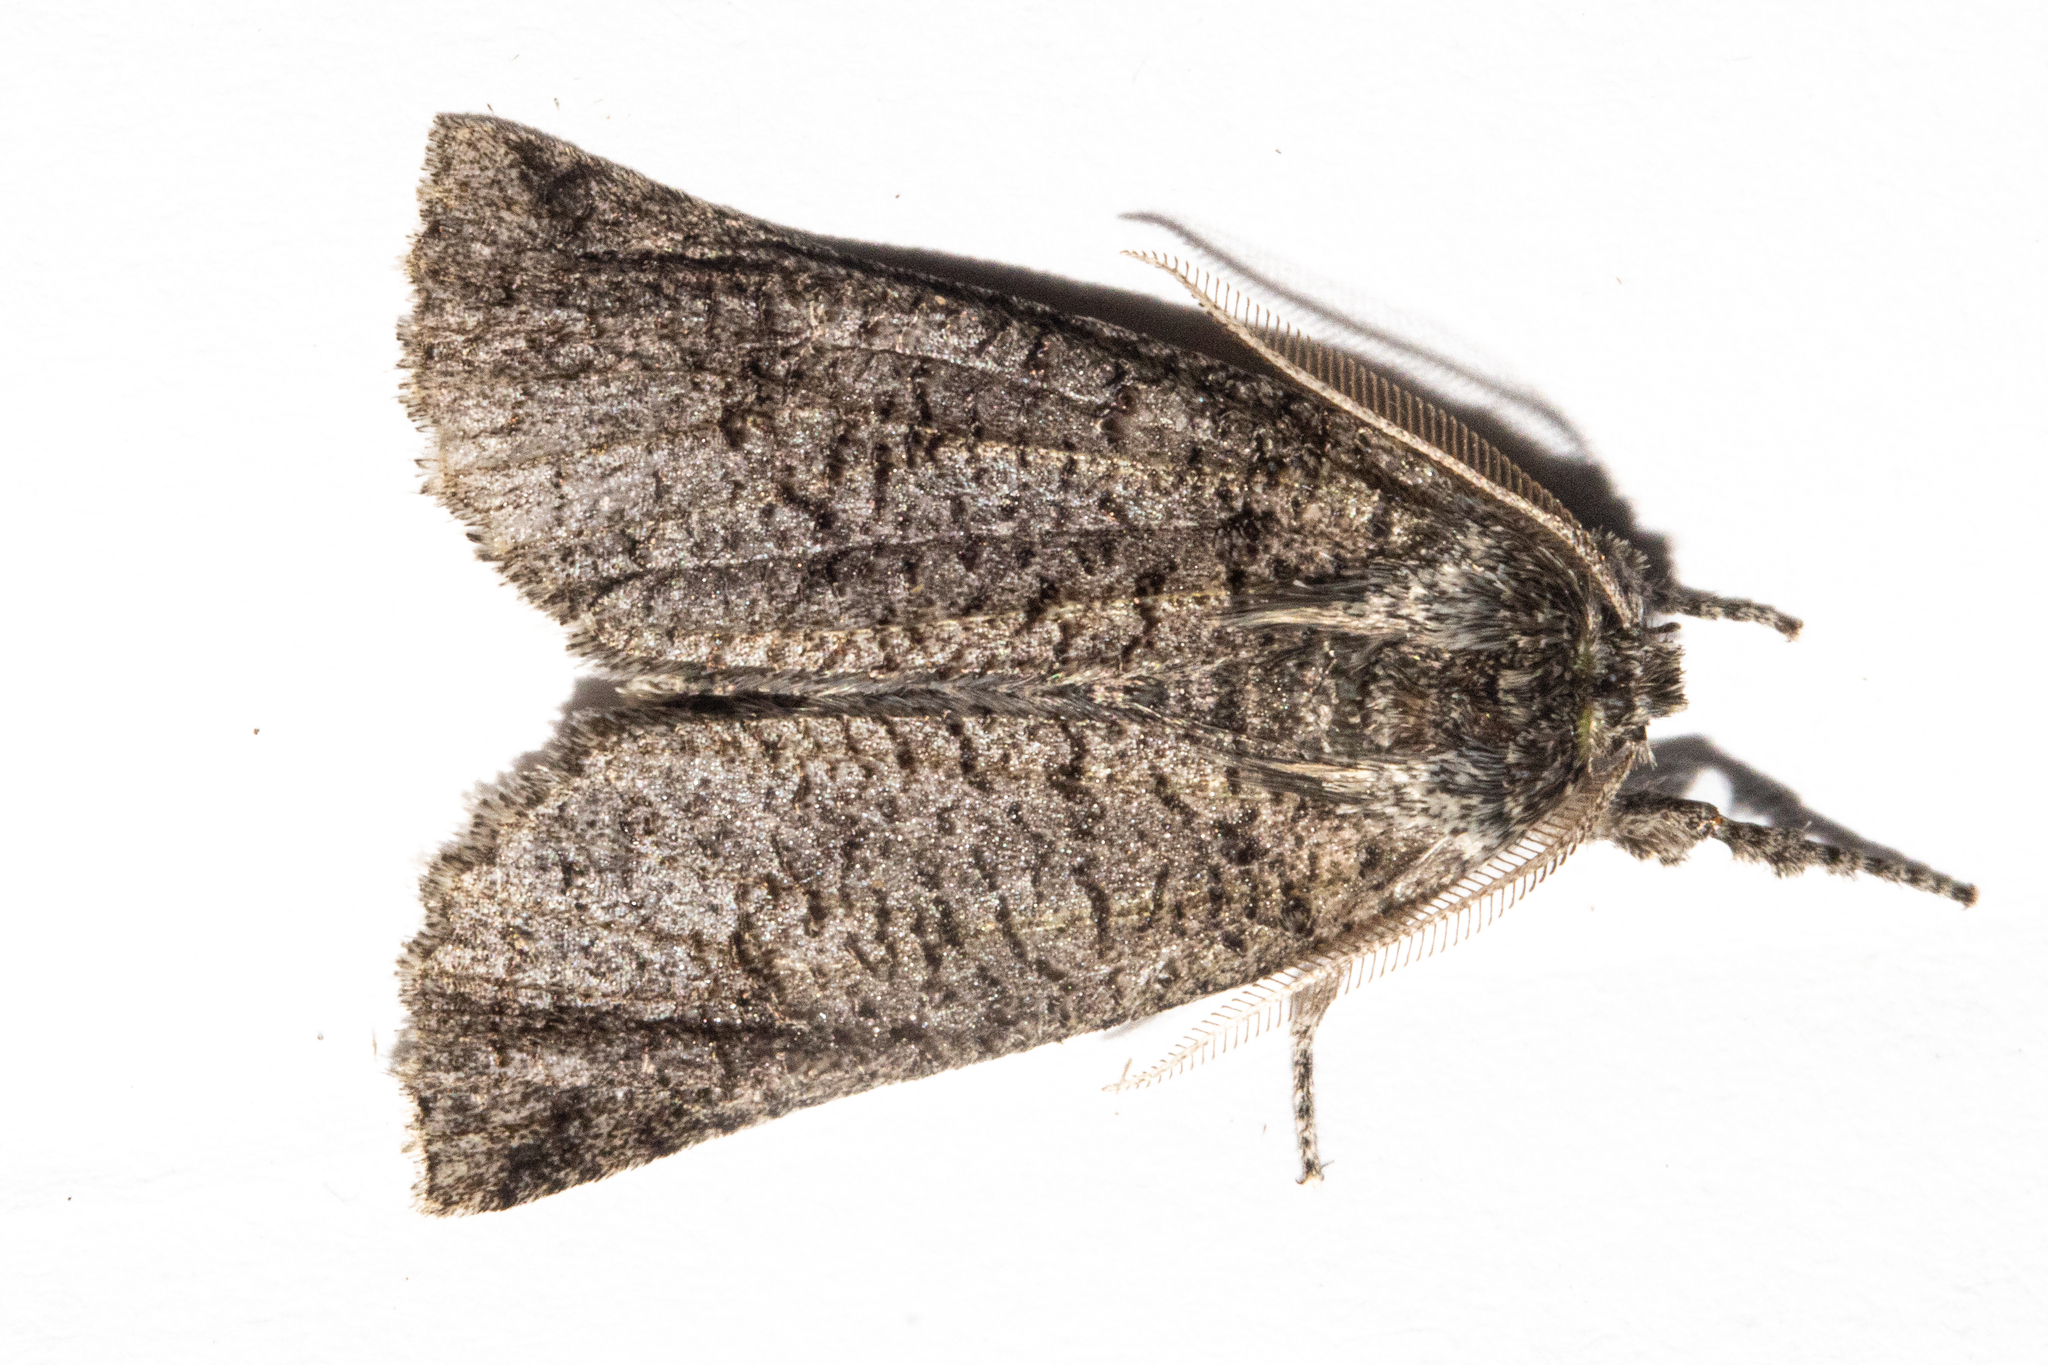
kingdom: Animalia
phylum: Arthropoda
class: Insecta
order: Lepidoptera
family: Geometridae
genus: Declana
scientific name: Declana floccosa
